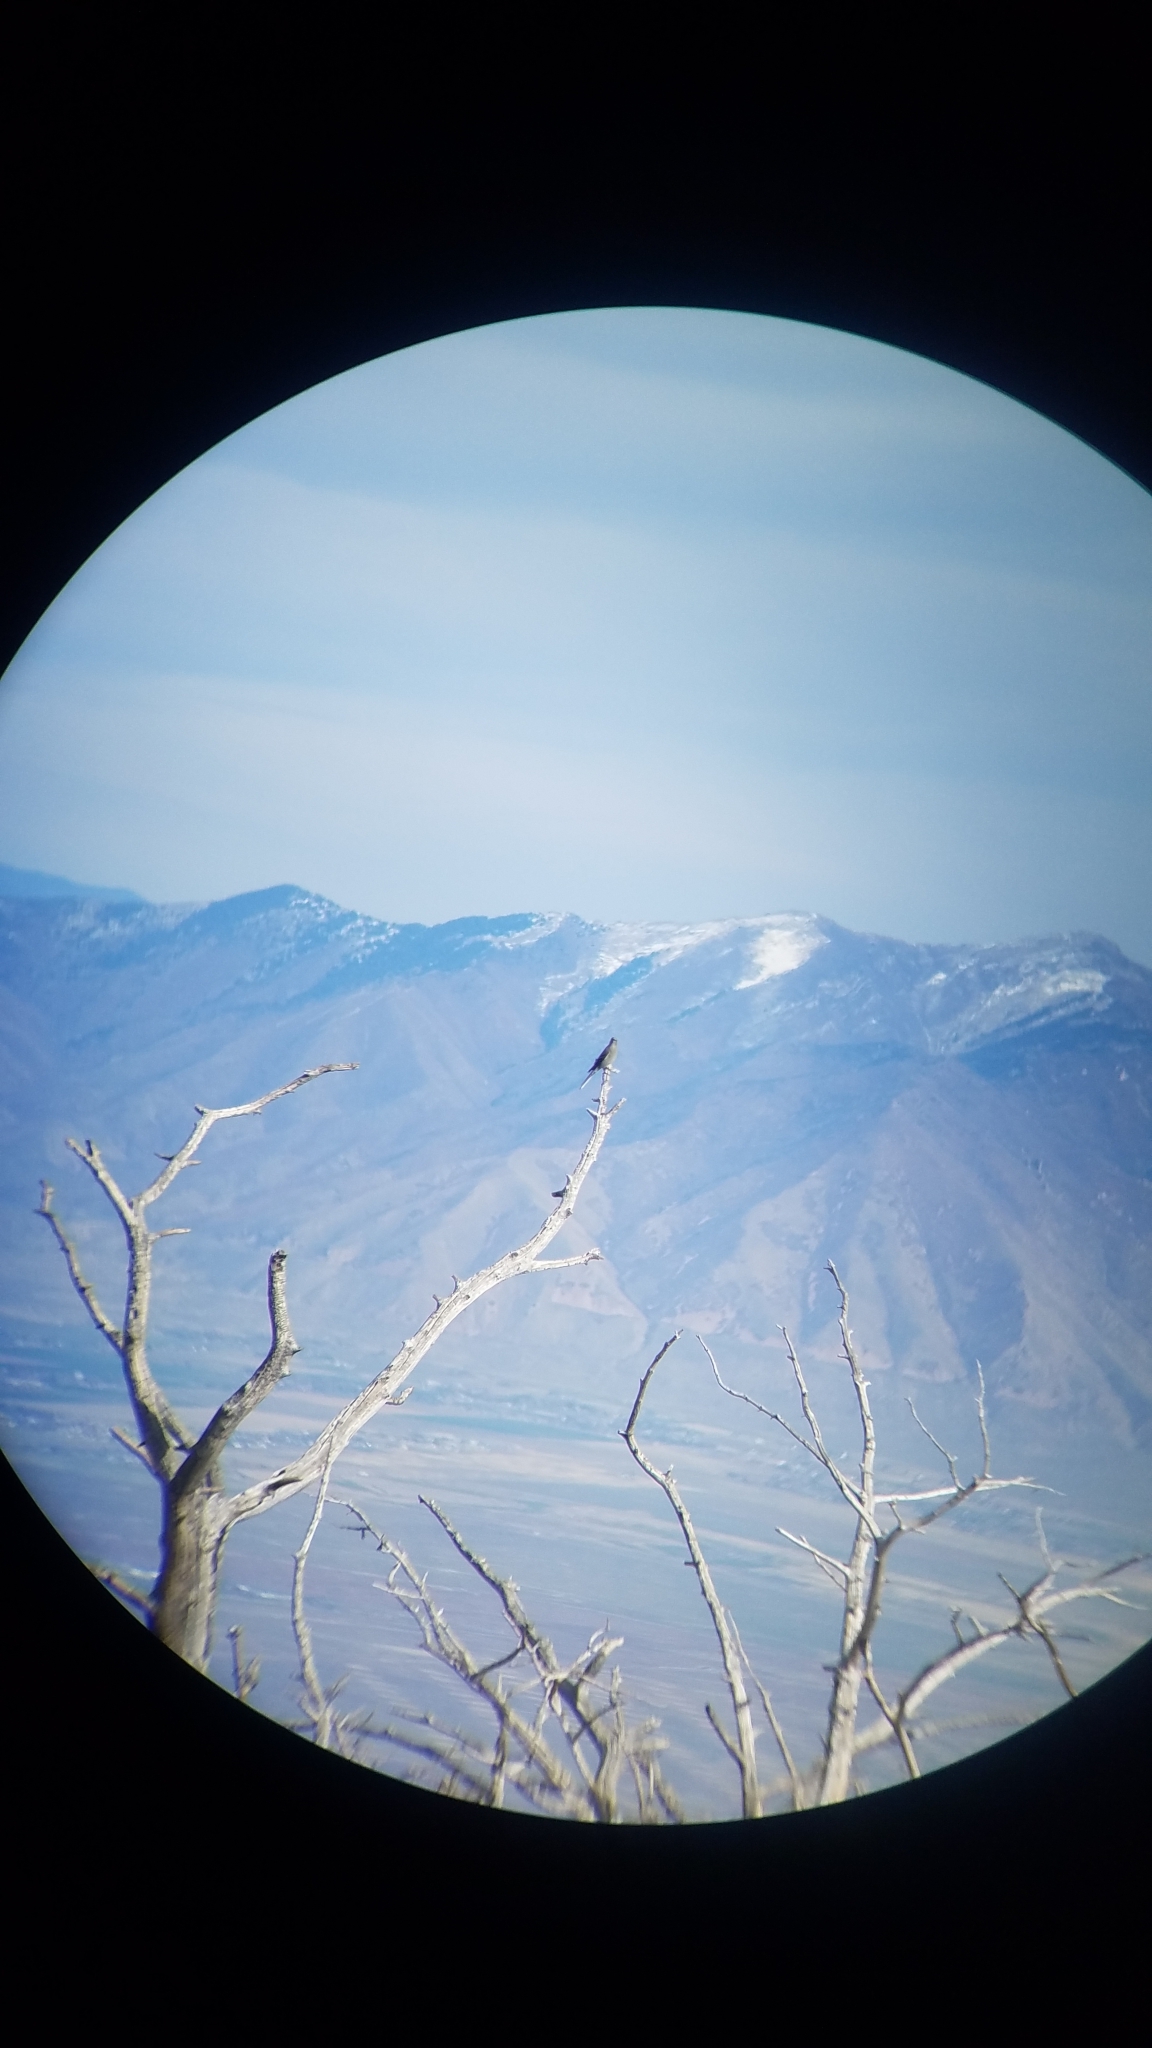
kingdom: Animalia
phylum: Chordata
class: Aves
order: Passeriformes
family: Turdidae
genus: Myadestes
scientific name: Myadestes townsendi
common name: Townsend's solitaire
